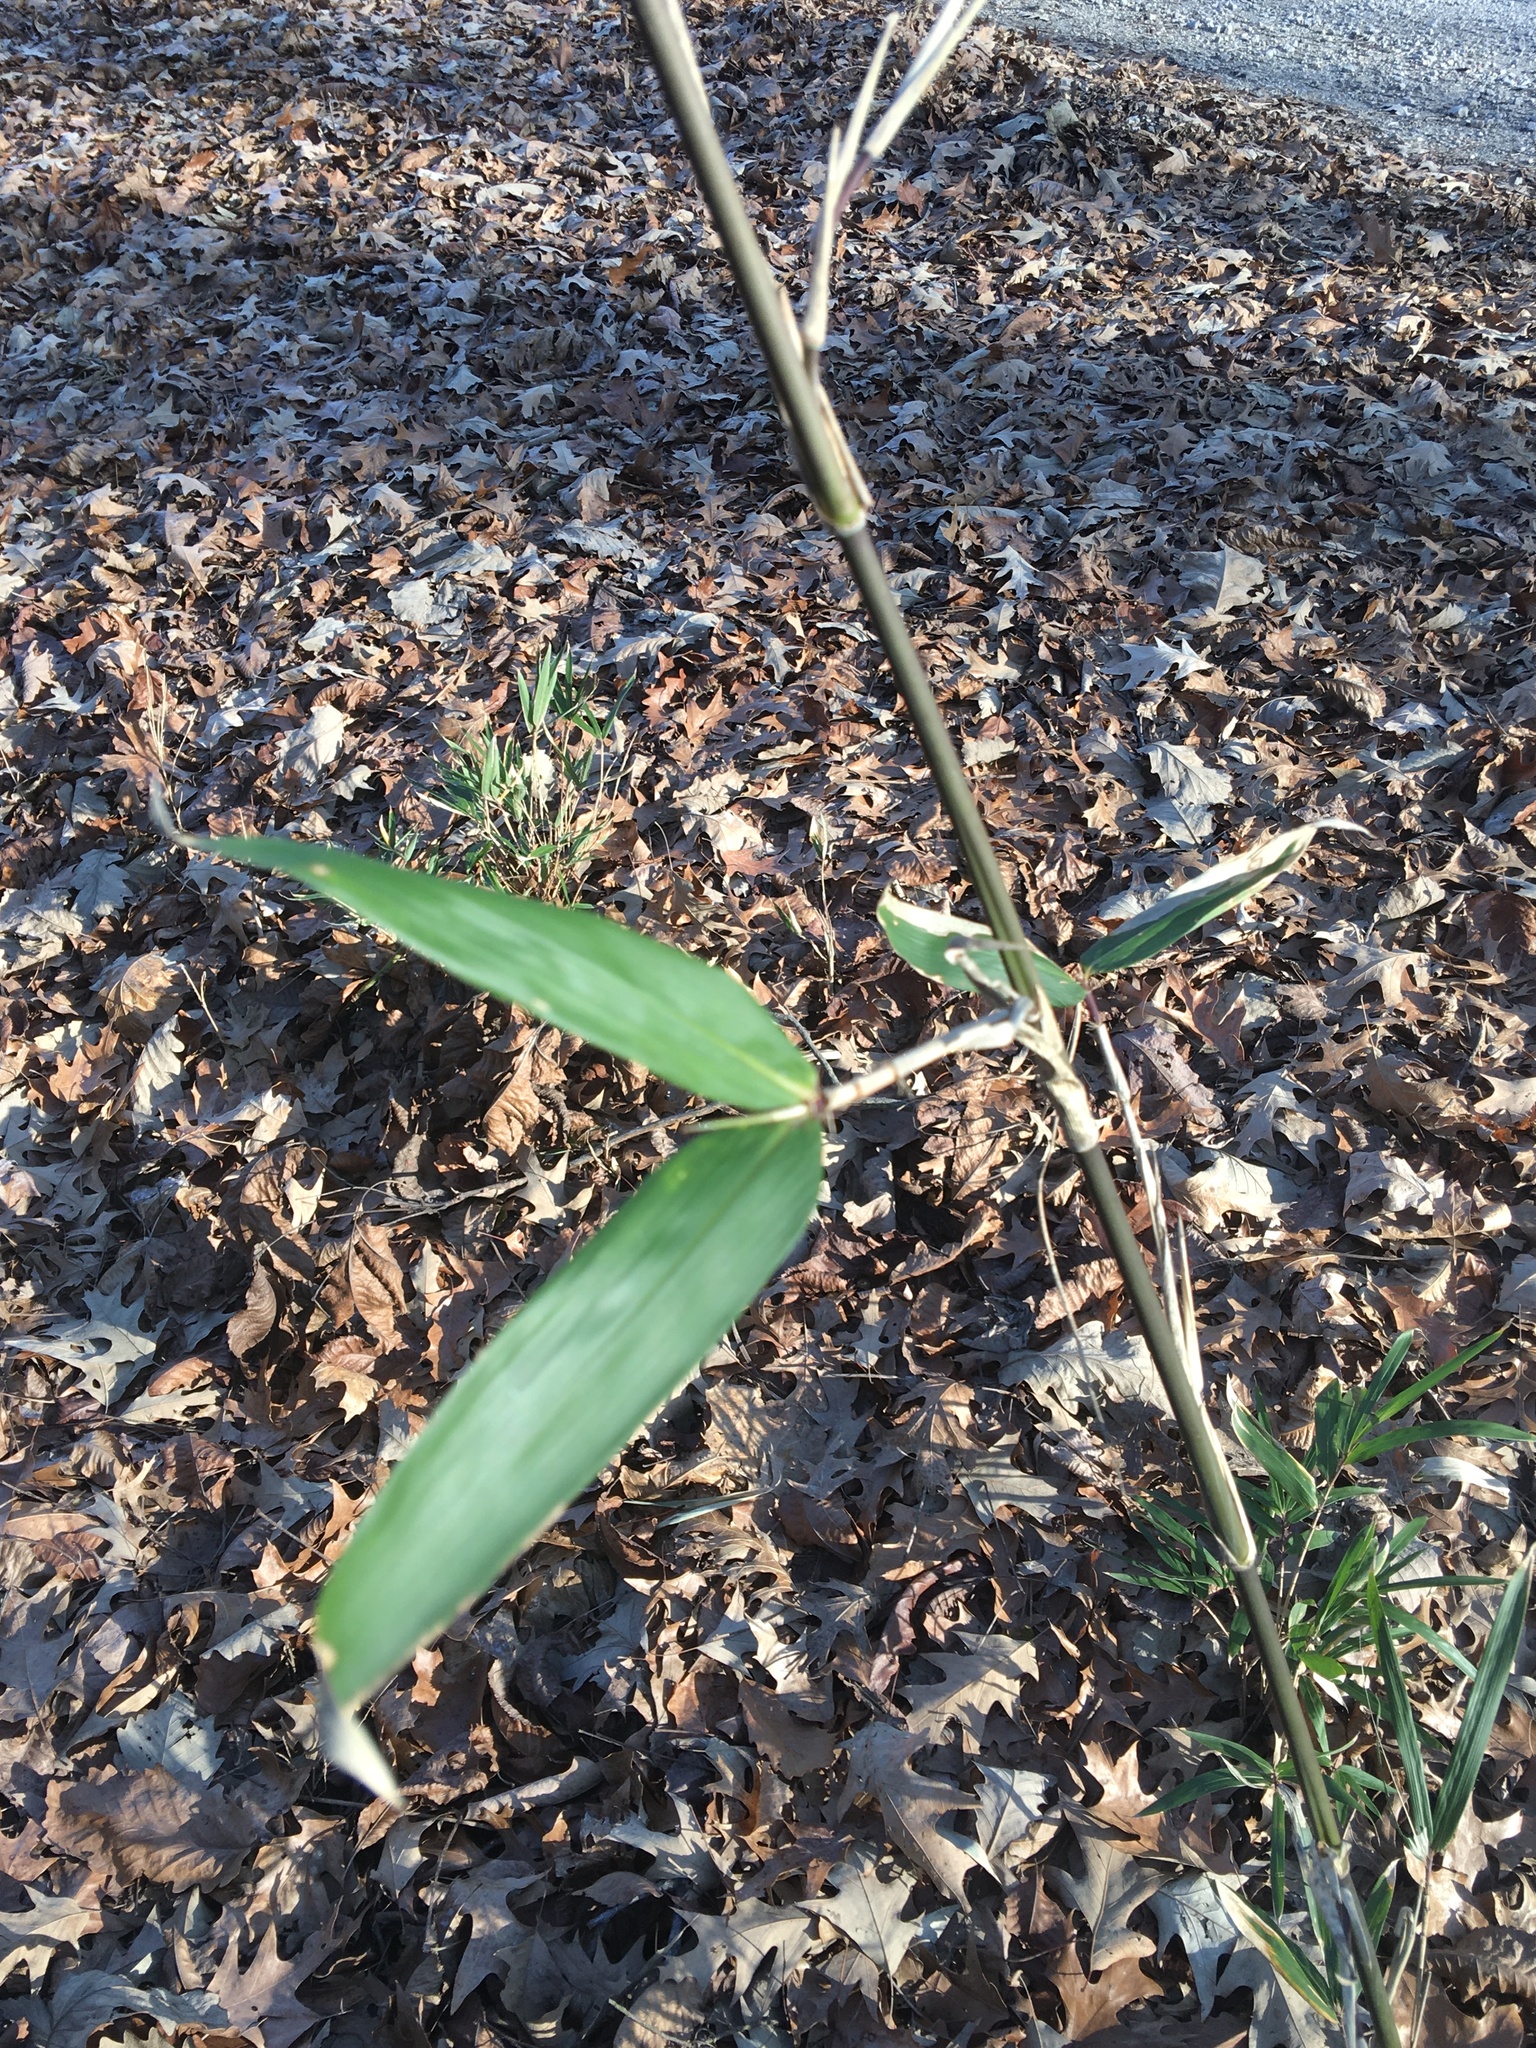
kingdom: Plantae
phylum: Tracheophyta
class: Liliopsida
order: Poales
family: Poaceae
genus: Arundinaria
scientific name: Arundinaria gigantea
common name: Giant cane
